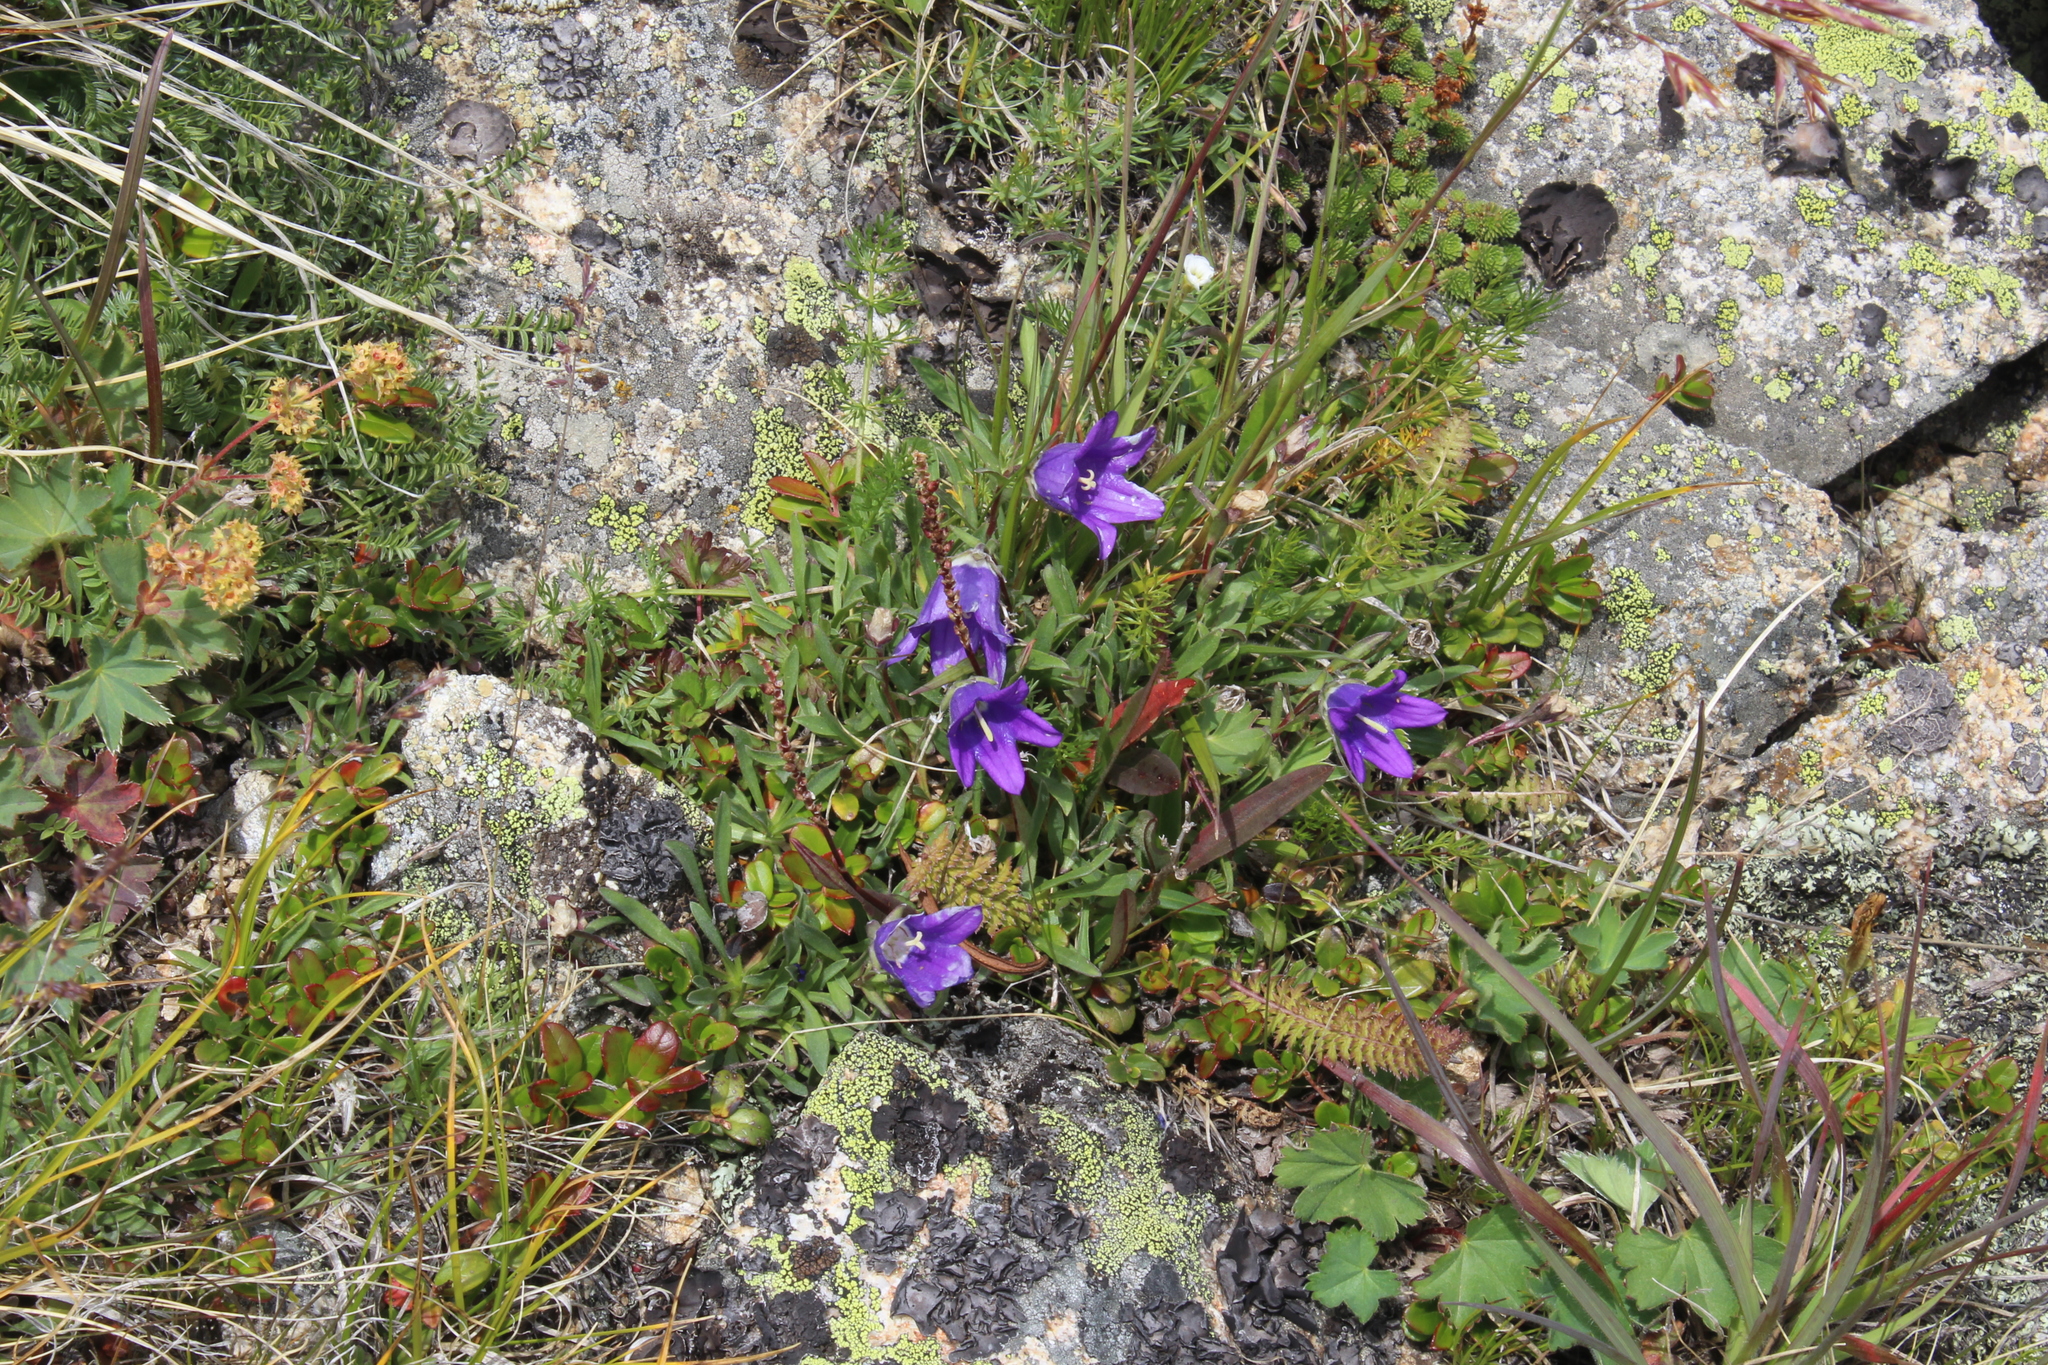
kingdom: Plantae
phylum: Tracheophyta
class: Magnoliopsida
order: Asterales
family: Campanulaceae
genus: Campanula
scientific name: Campanula saxifraga
